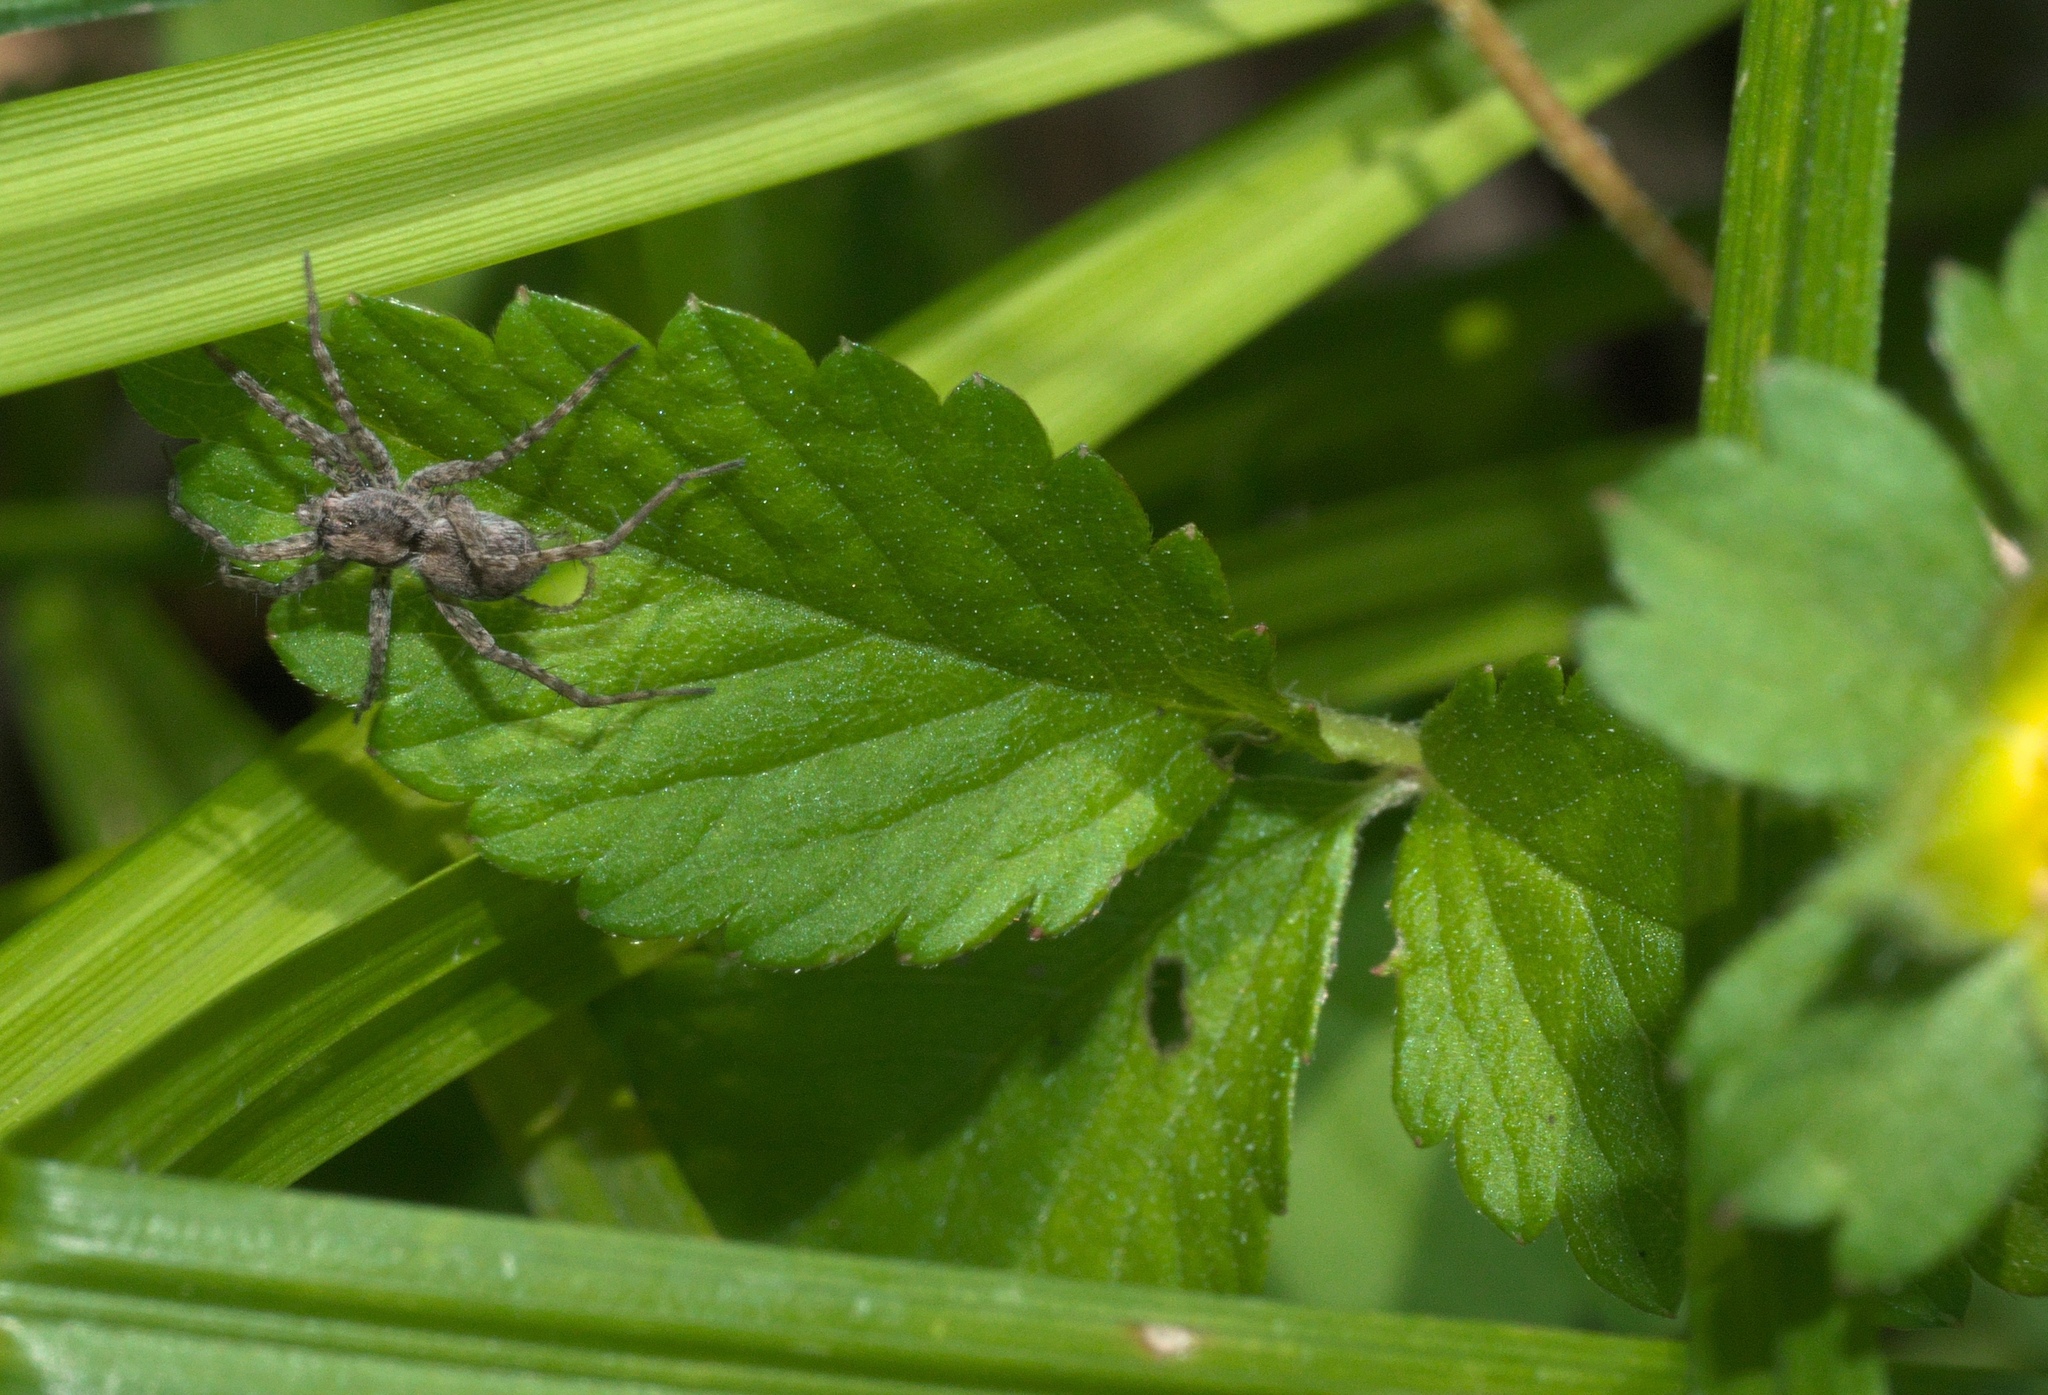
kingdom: Plantae
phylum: Tracheophyta
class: Magnoliopsida
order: Rosales
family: Rosaceae
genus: Potentilla
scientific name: Potentilla indica
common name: Yellow-flowered strawberry
